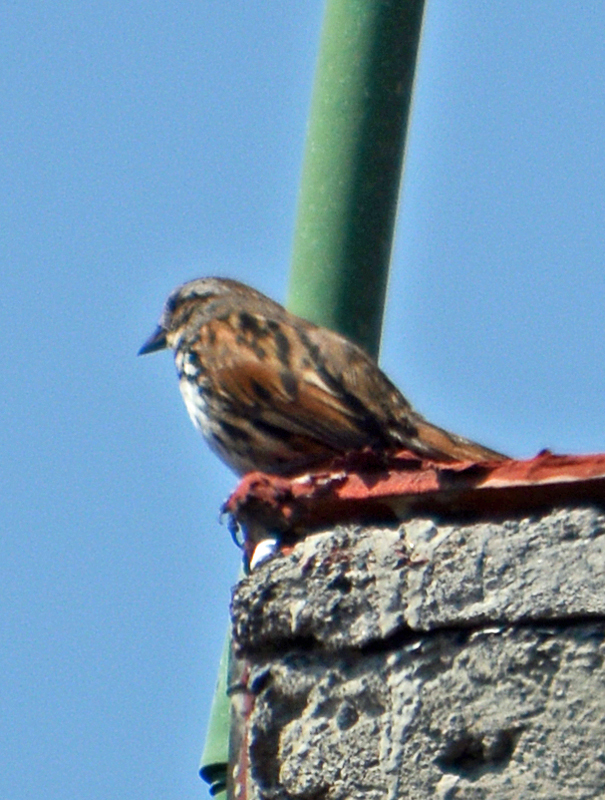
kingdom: Animalia
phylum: Chordata
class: Aves
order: Passeriformes
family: Passerellidae
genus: Melospiza
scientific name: Melospiza melodia
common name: Song sparrow
